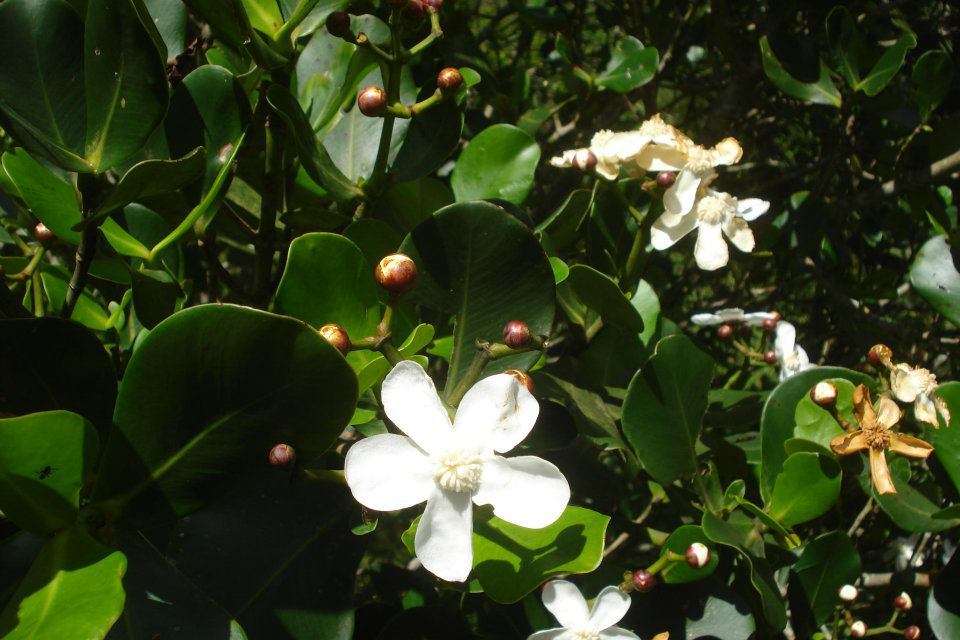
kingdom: Plantae
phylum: Tracheophyta
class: Magnoliopsida
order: Malpighiales
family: Clusiaceae
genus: Clusia
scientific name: Clusia criuva
